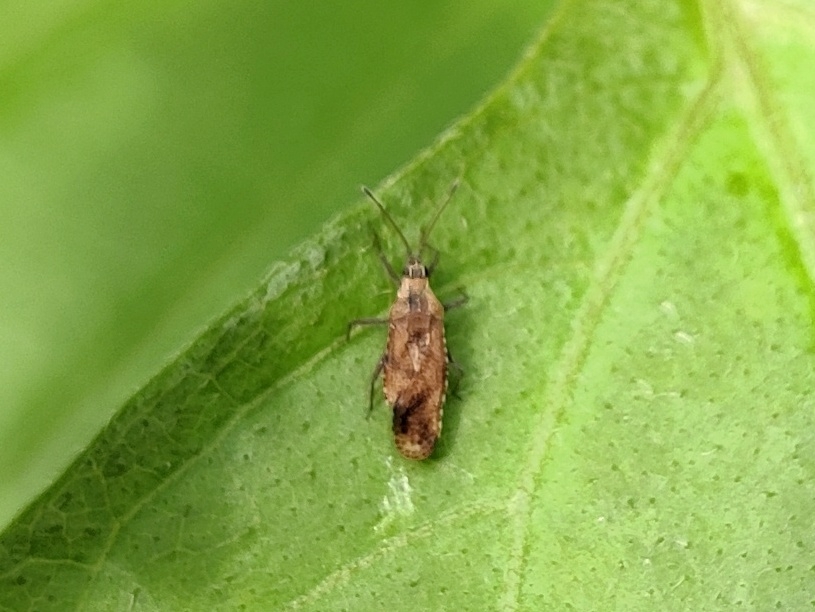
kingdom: Animalia
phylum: Arthropoda
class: Insecta
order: Hemiptera
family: Tingidae
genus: Cysteochila
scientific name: Cysteochila delineata
